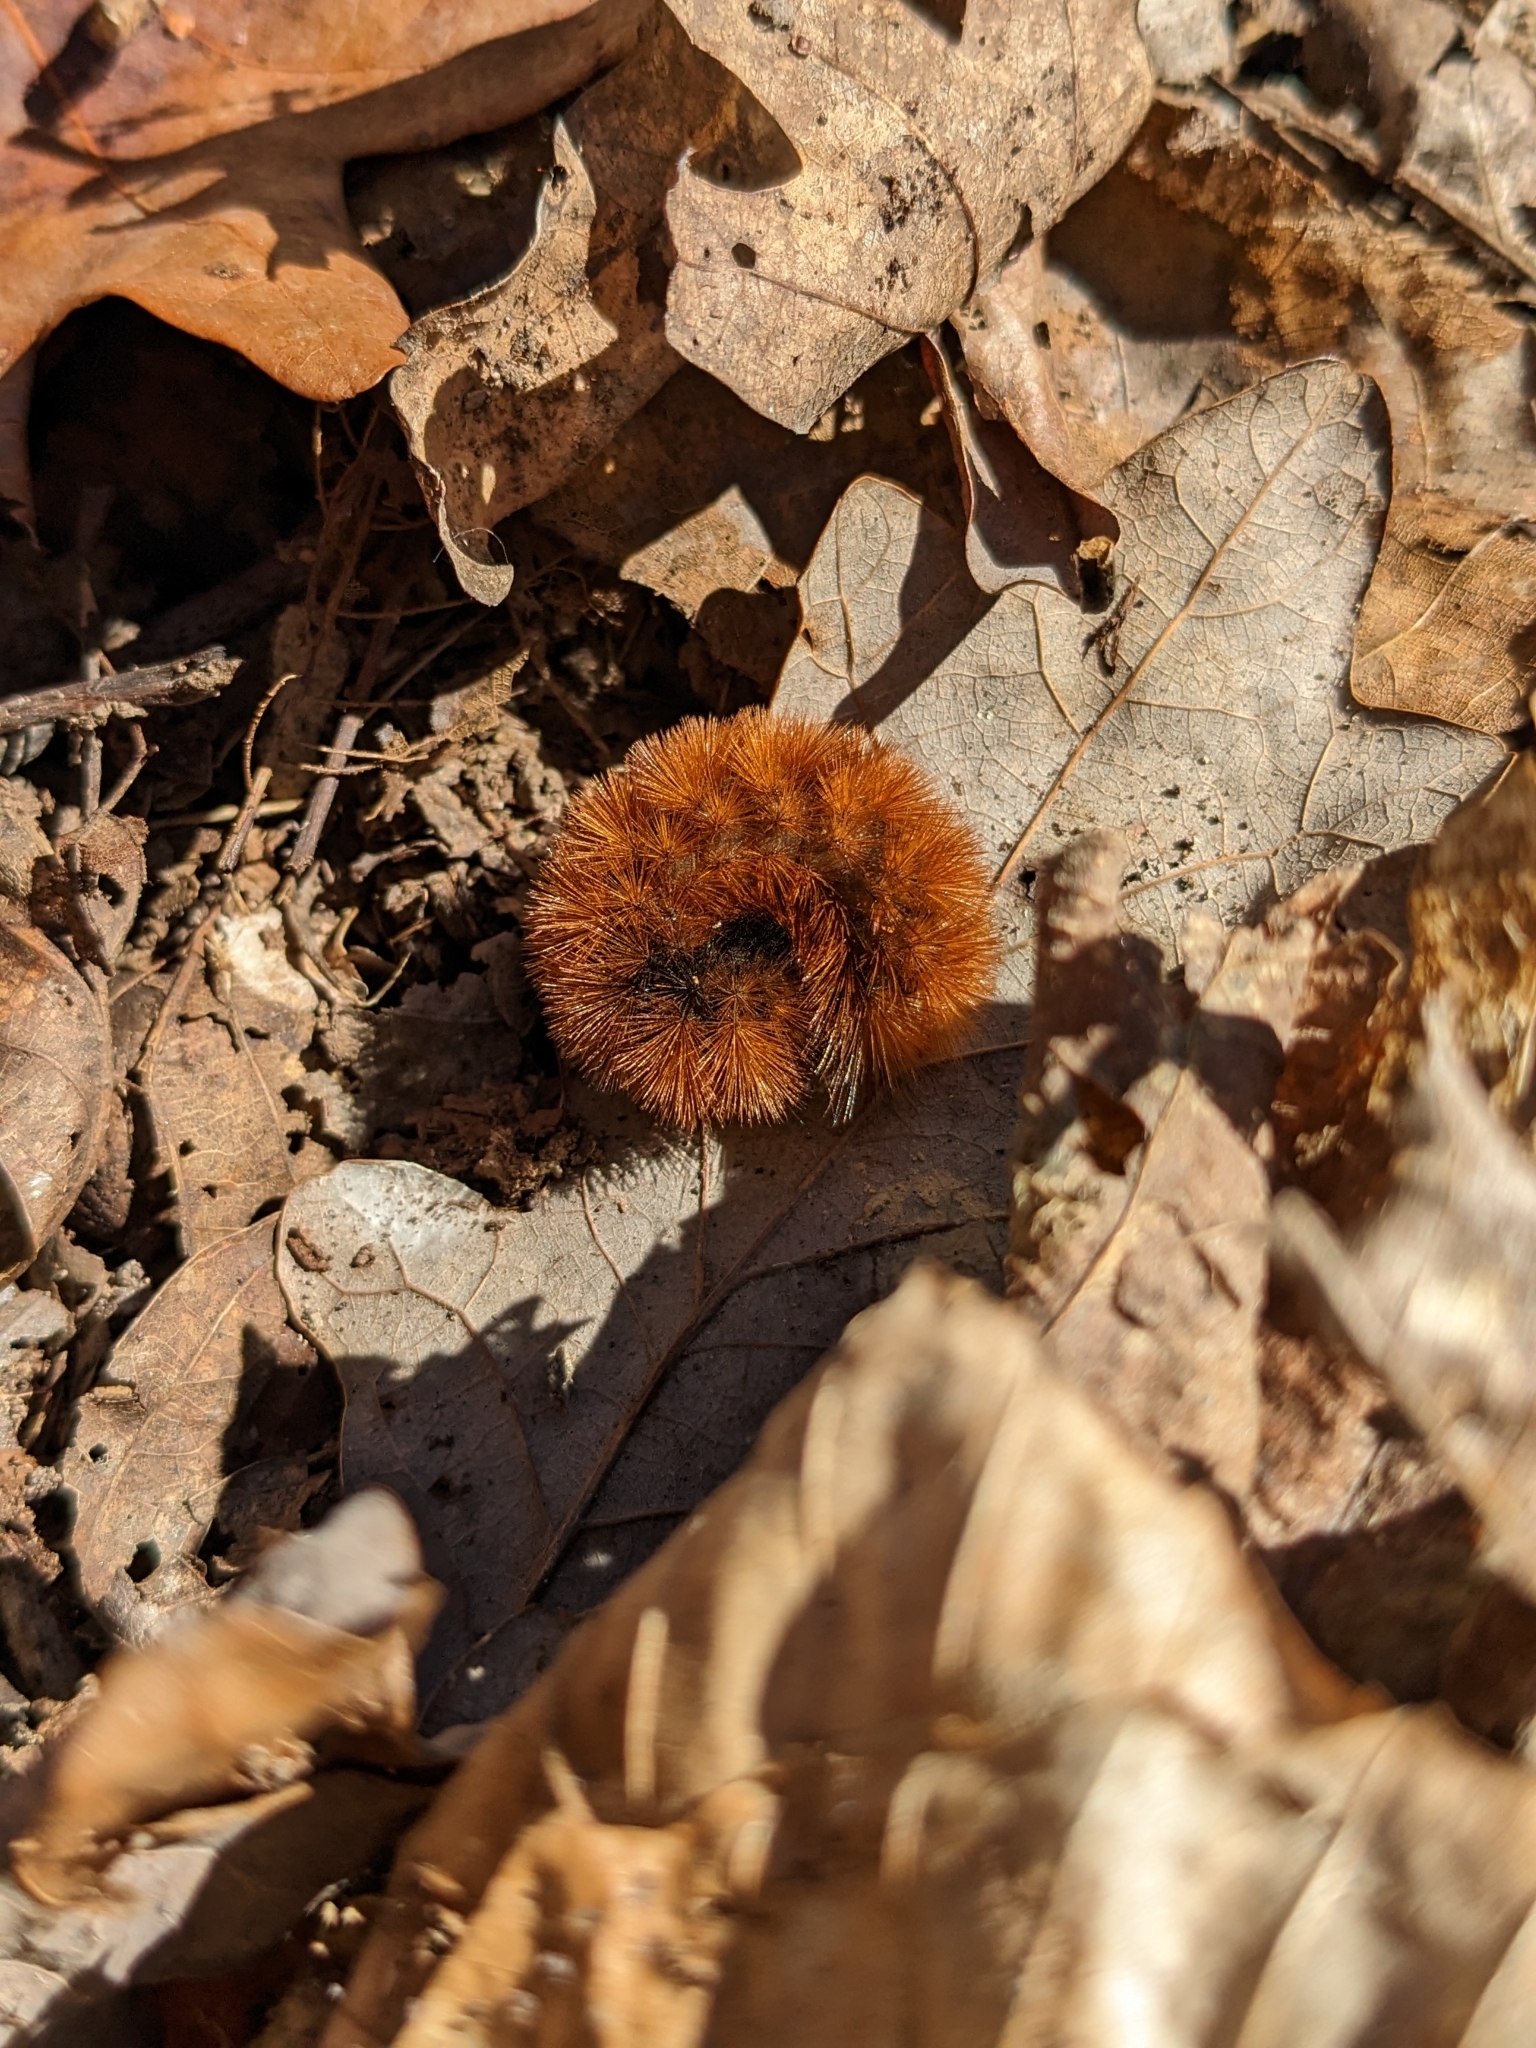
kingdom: Animalia
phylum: Arthropoda
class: Insecta
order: Lepidoptera
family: Erebidae
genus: Pyrrharctia
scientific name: Pyrrharctia isabella
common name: Isabella tiger moth
